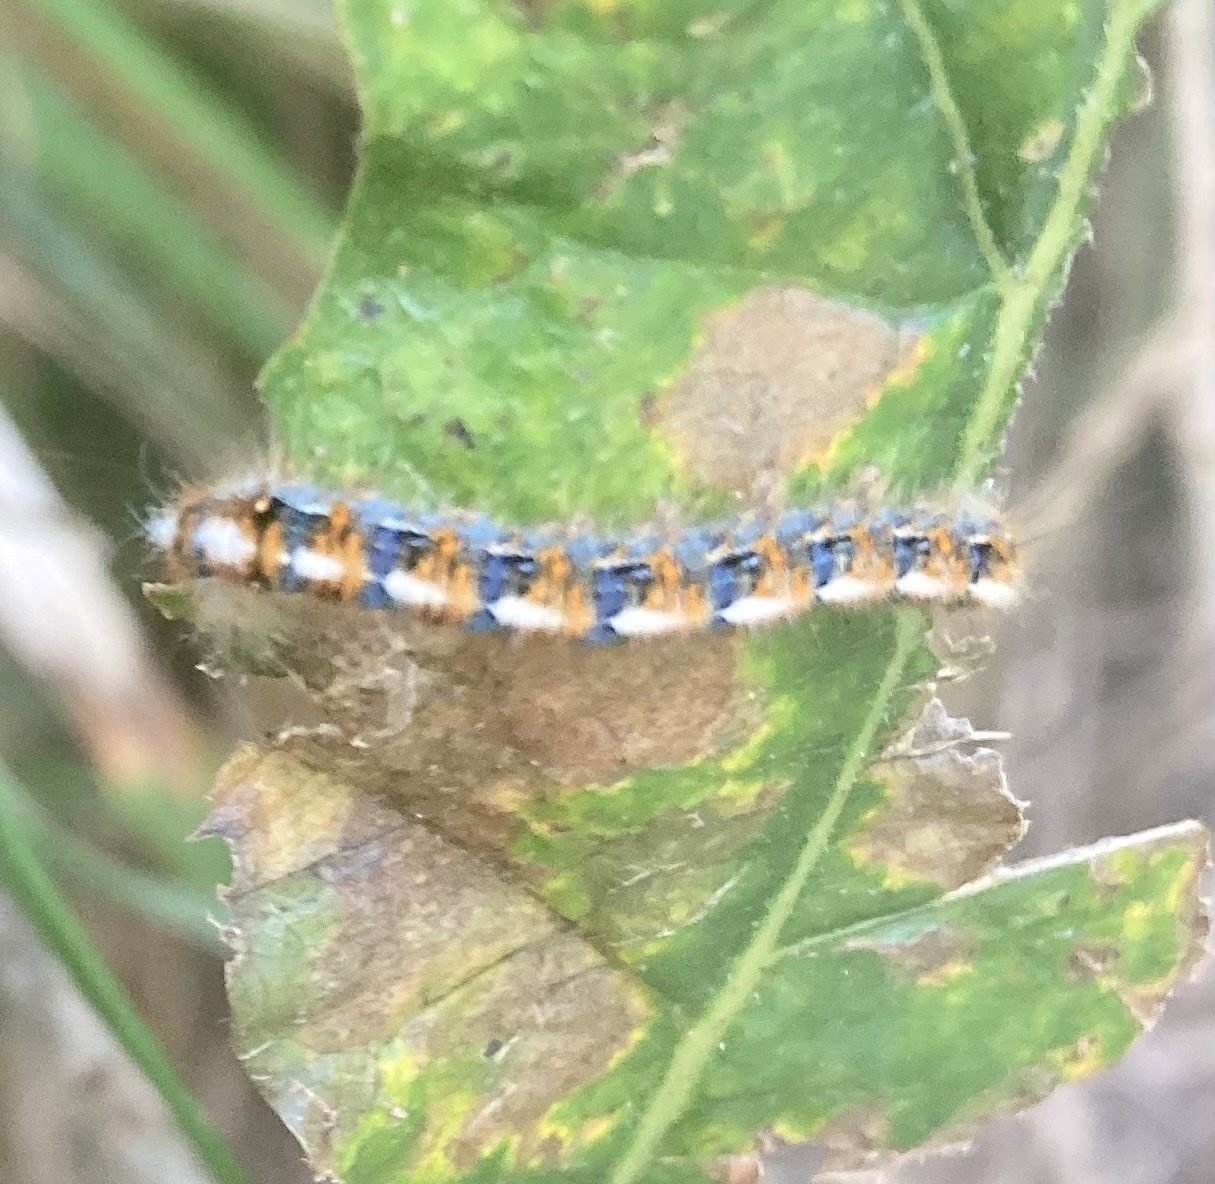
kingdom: Animalia
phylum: Arthropoda
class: Insecta
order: Lepidoptera
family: Lasiocampidae
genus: Lasiocampa
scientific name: Lasiocampa quercus
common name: Oak eggar
